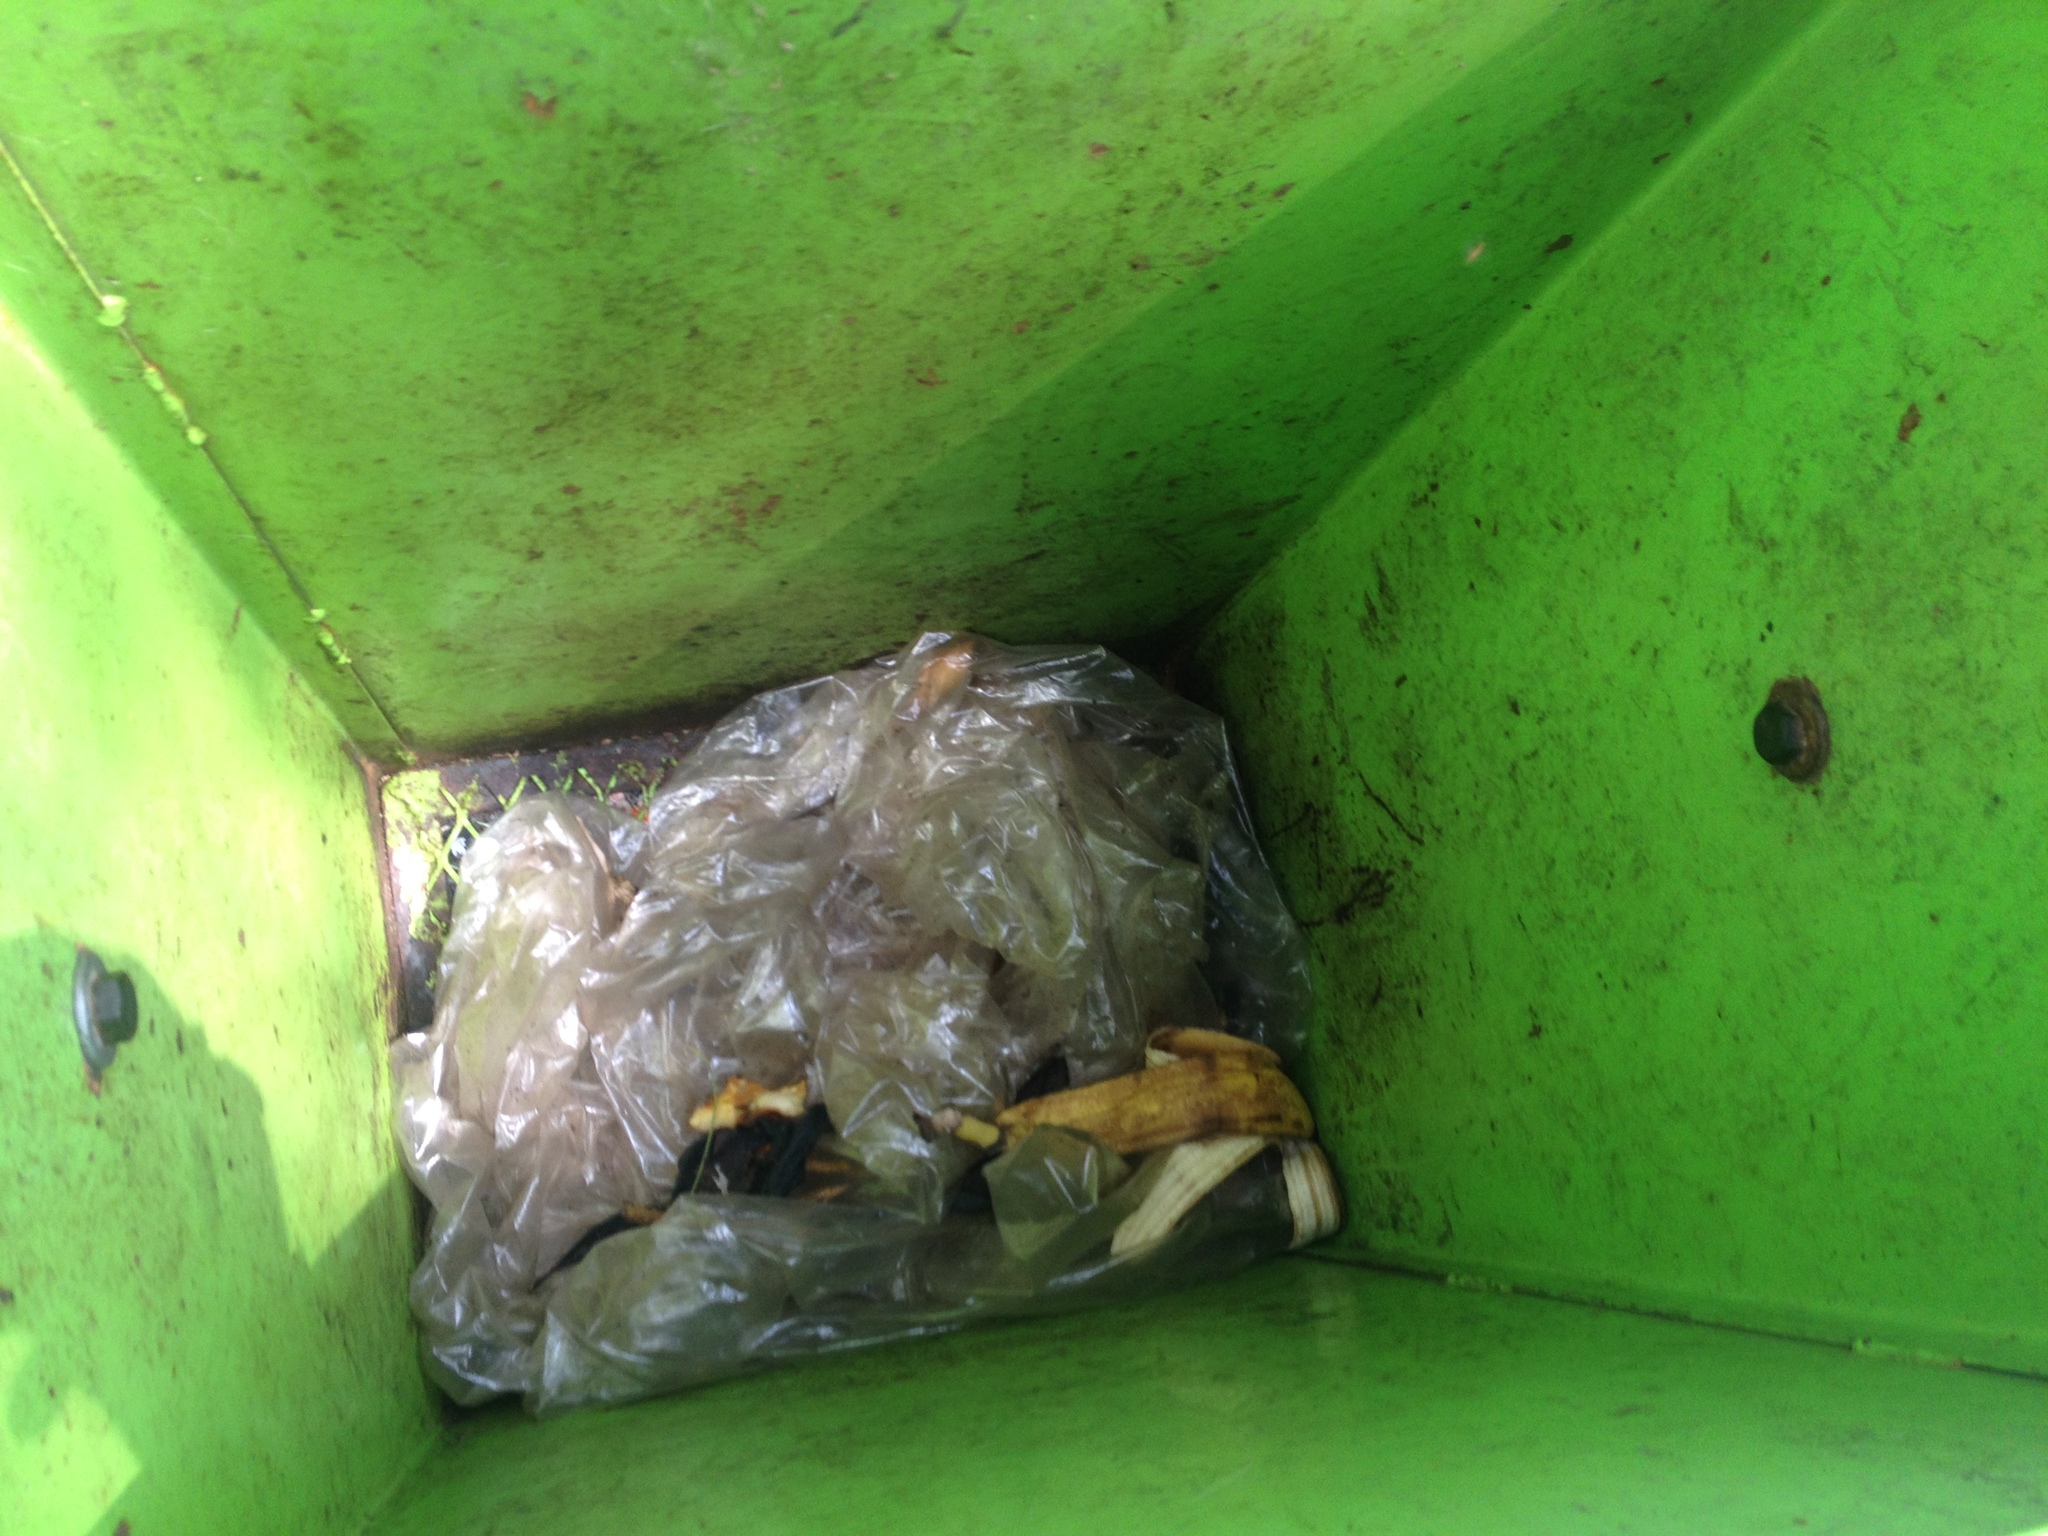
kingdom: Animalia
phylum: Chordata
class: Mammalia
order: Didelphimorphia
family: Didelphidae
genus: Didelphis
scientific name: Didelphis virginiana
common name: Virginia opossum
